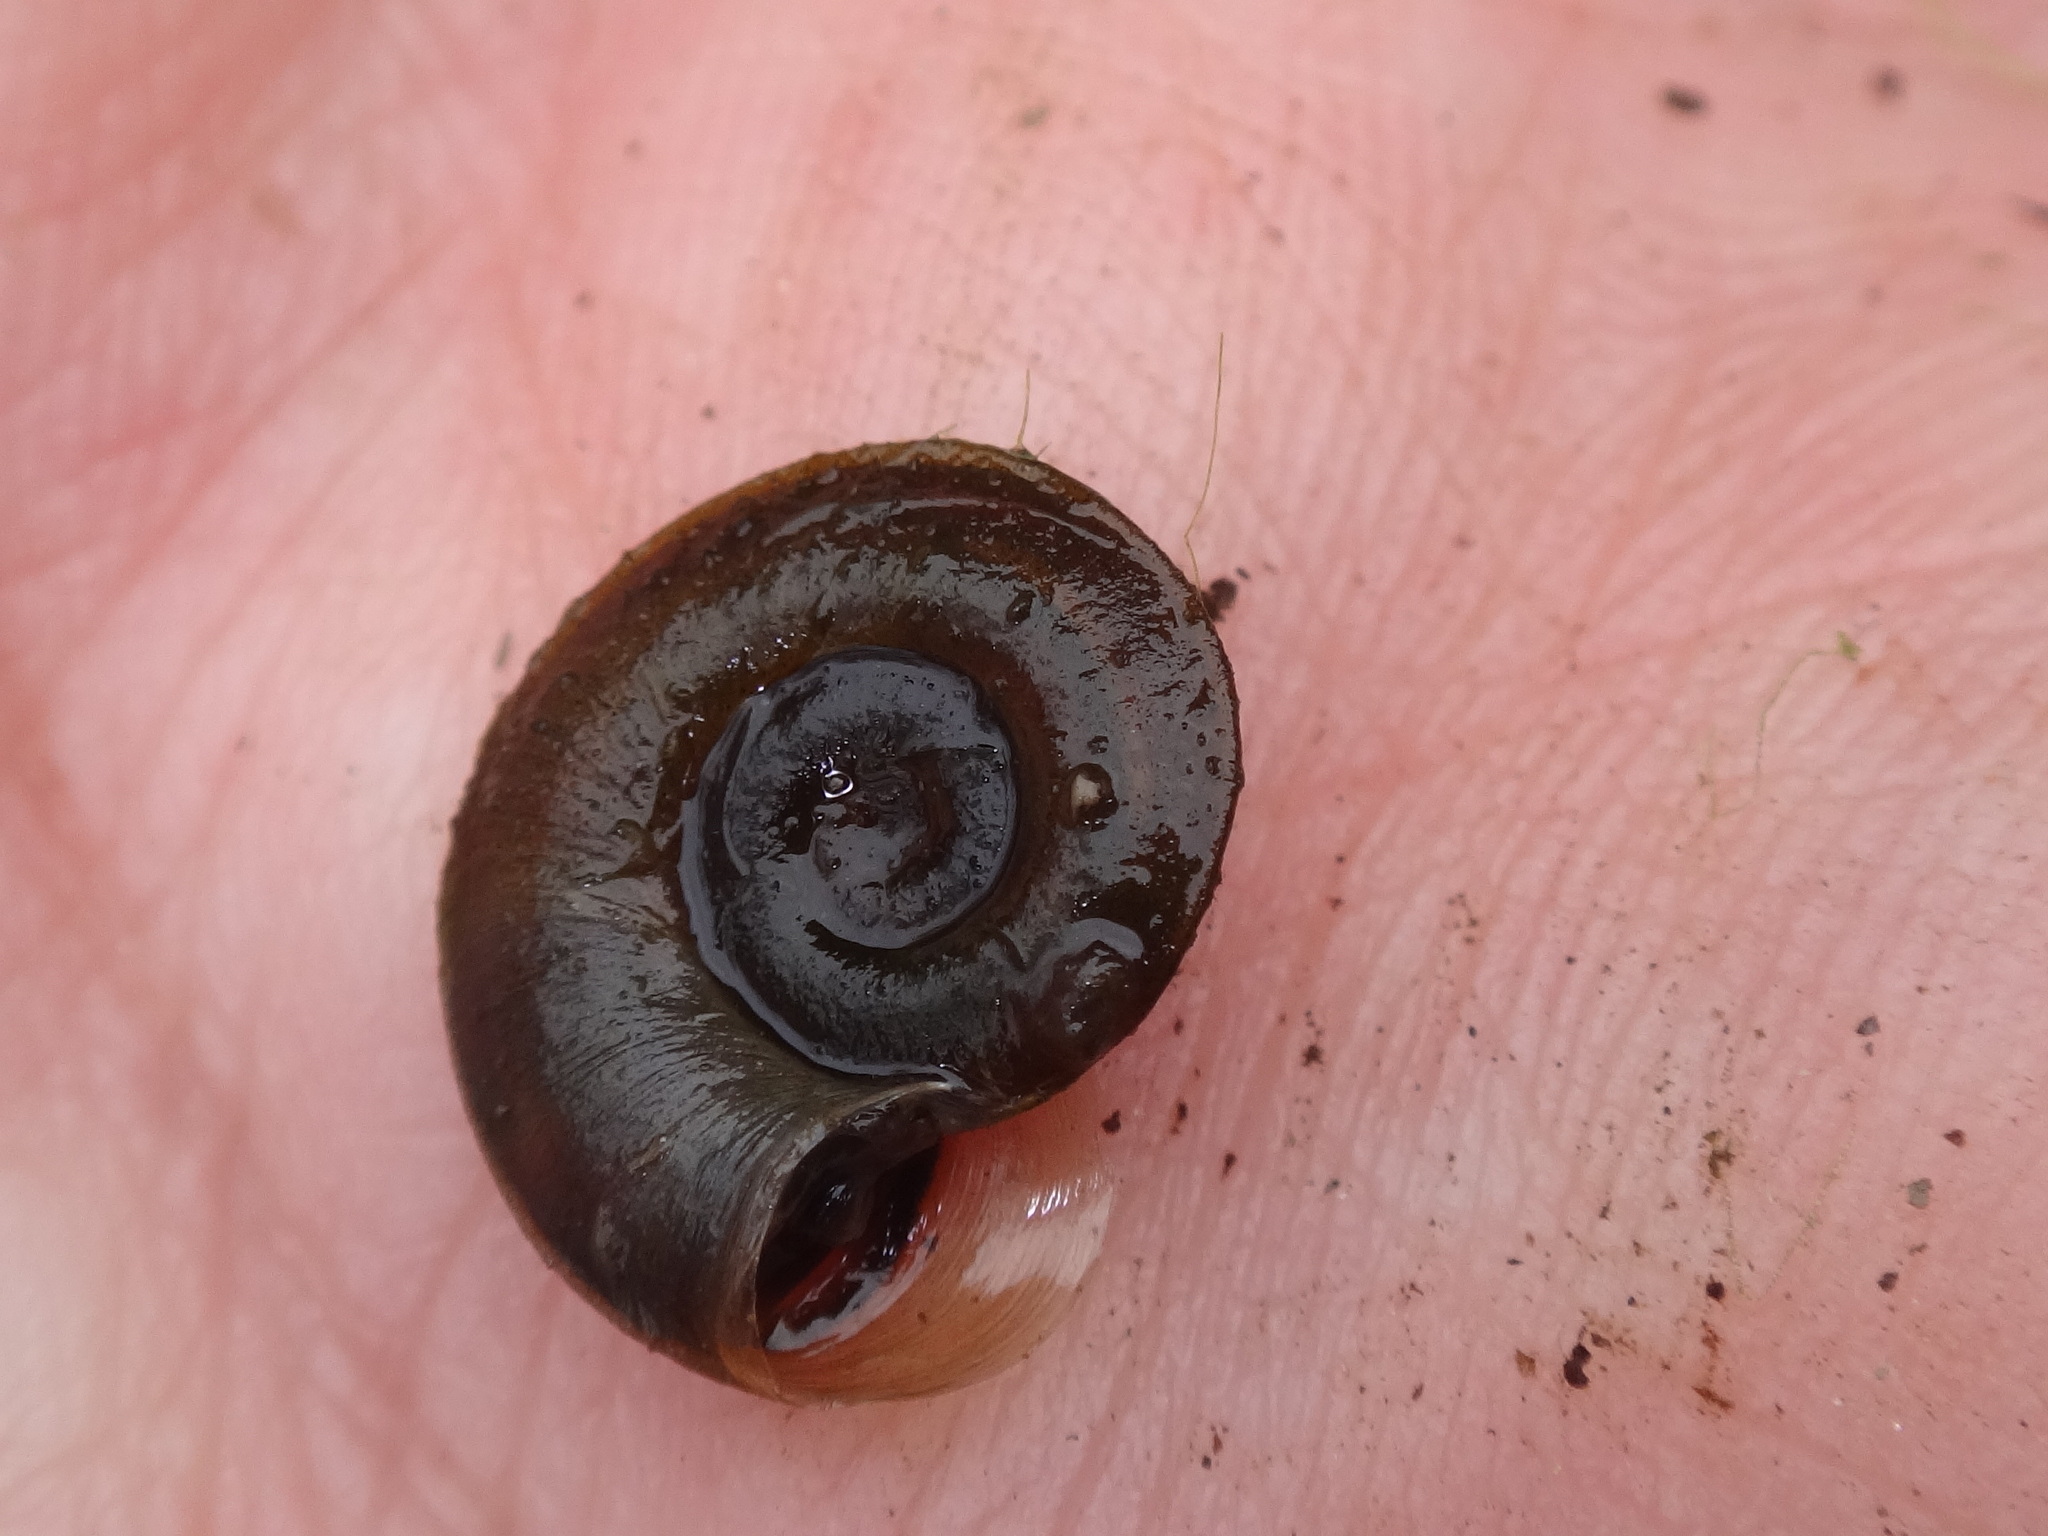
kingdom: Animalia
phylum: Mollusca
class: Gastropoda
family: Planorbidae
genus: Planorbis
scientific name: Planorbis carinatus
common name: Keeled ramshorn
